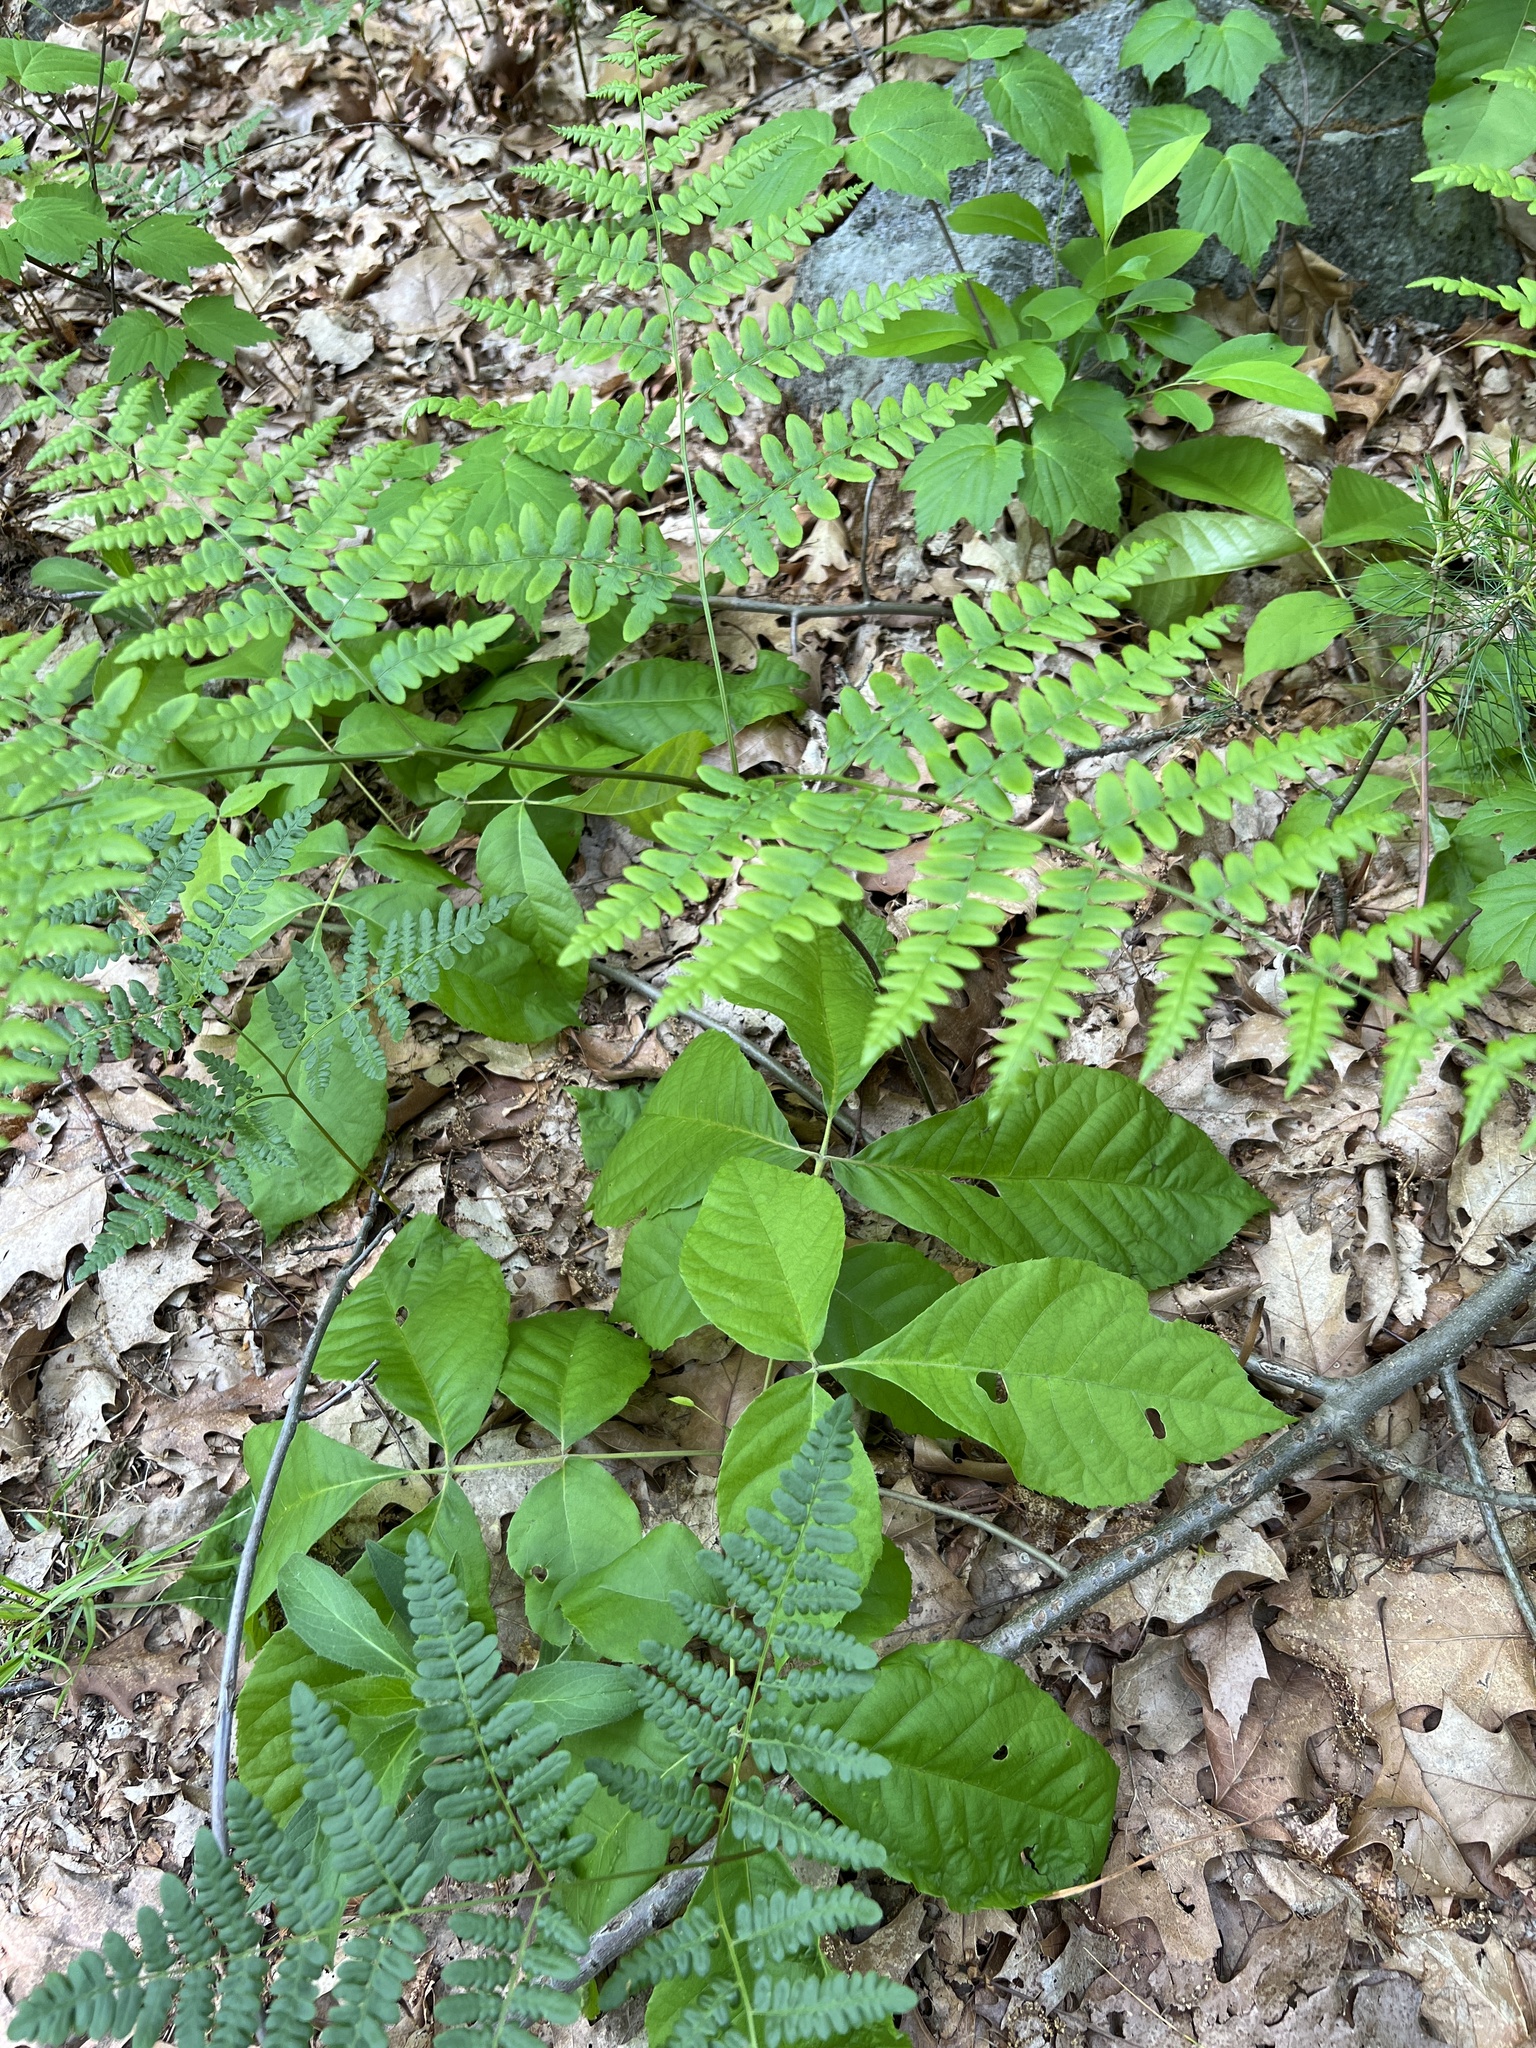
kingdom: Plantae
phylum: Tracheophyta
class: Polypodiopsida
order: Polypodiales
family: Dennstaedtiaceae
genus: Pteridium
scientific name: Pteridium aquilinum
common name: Bracken
